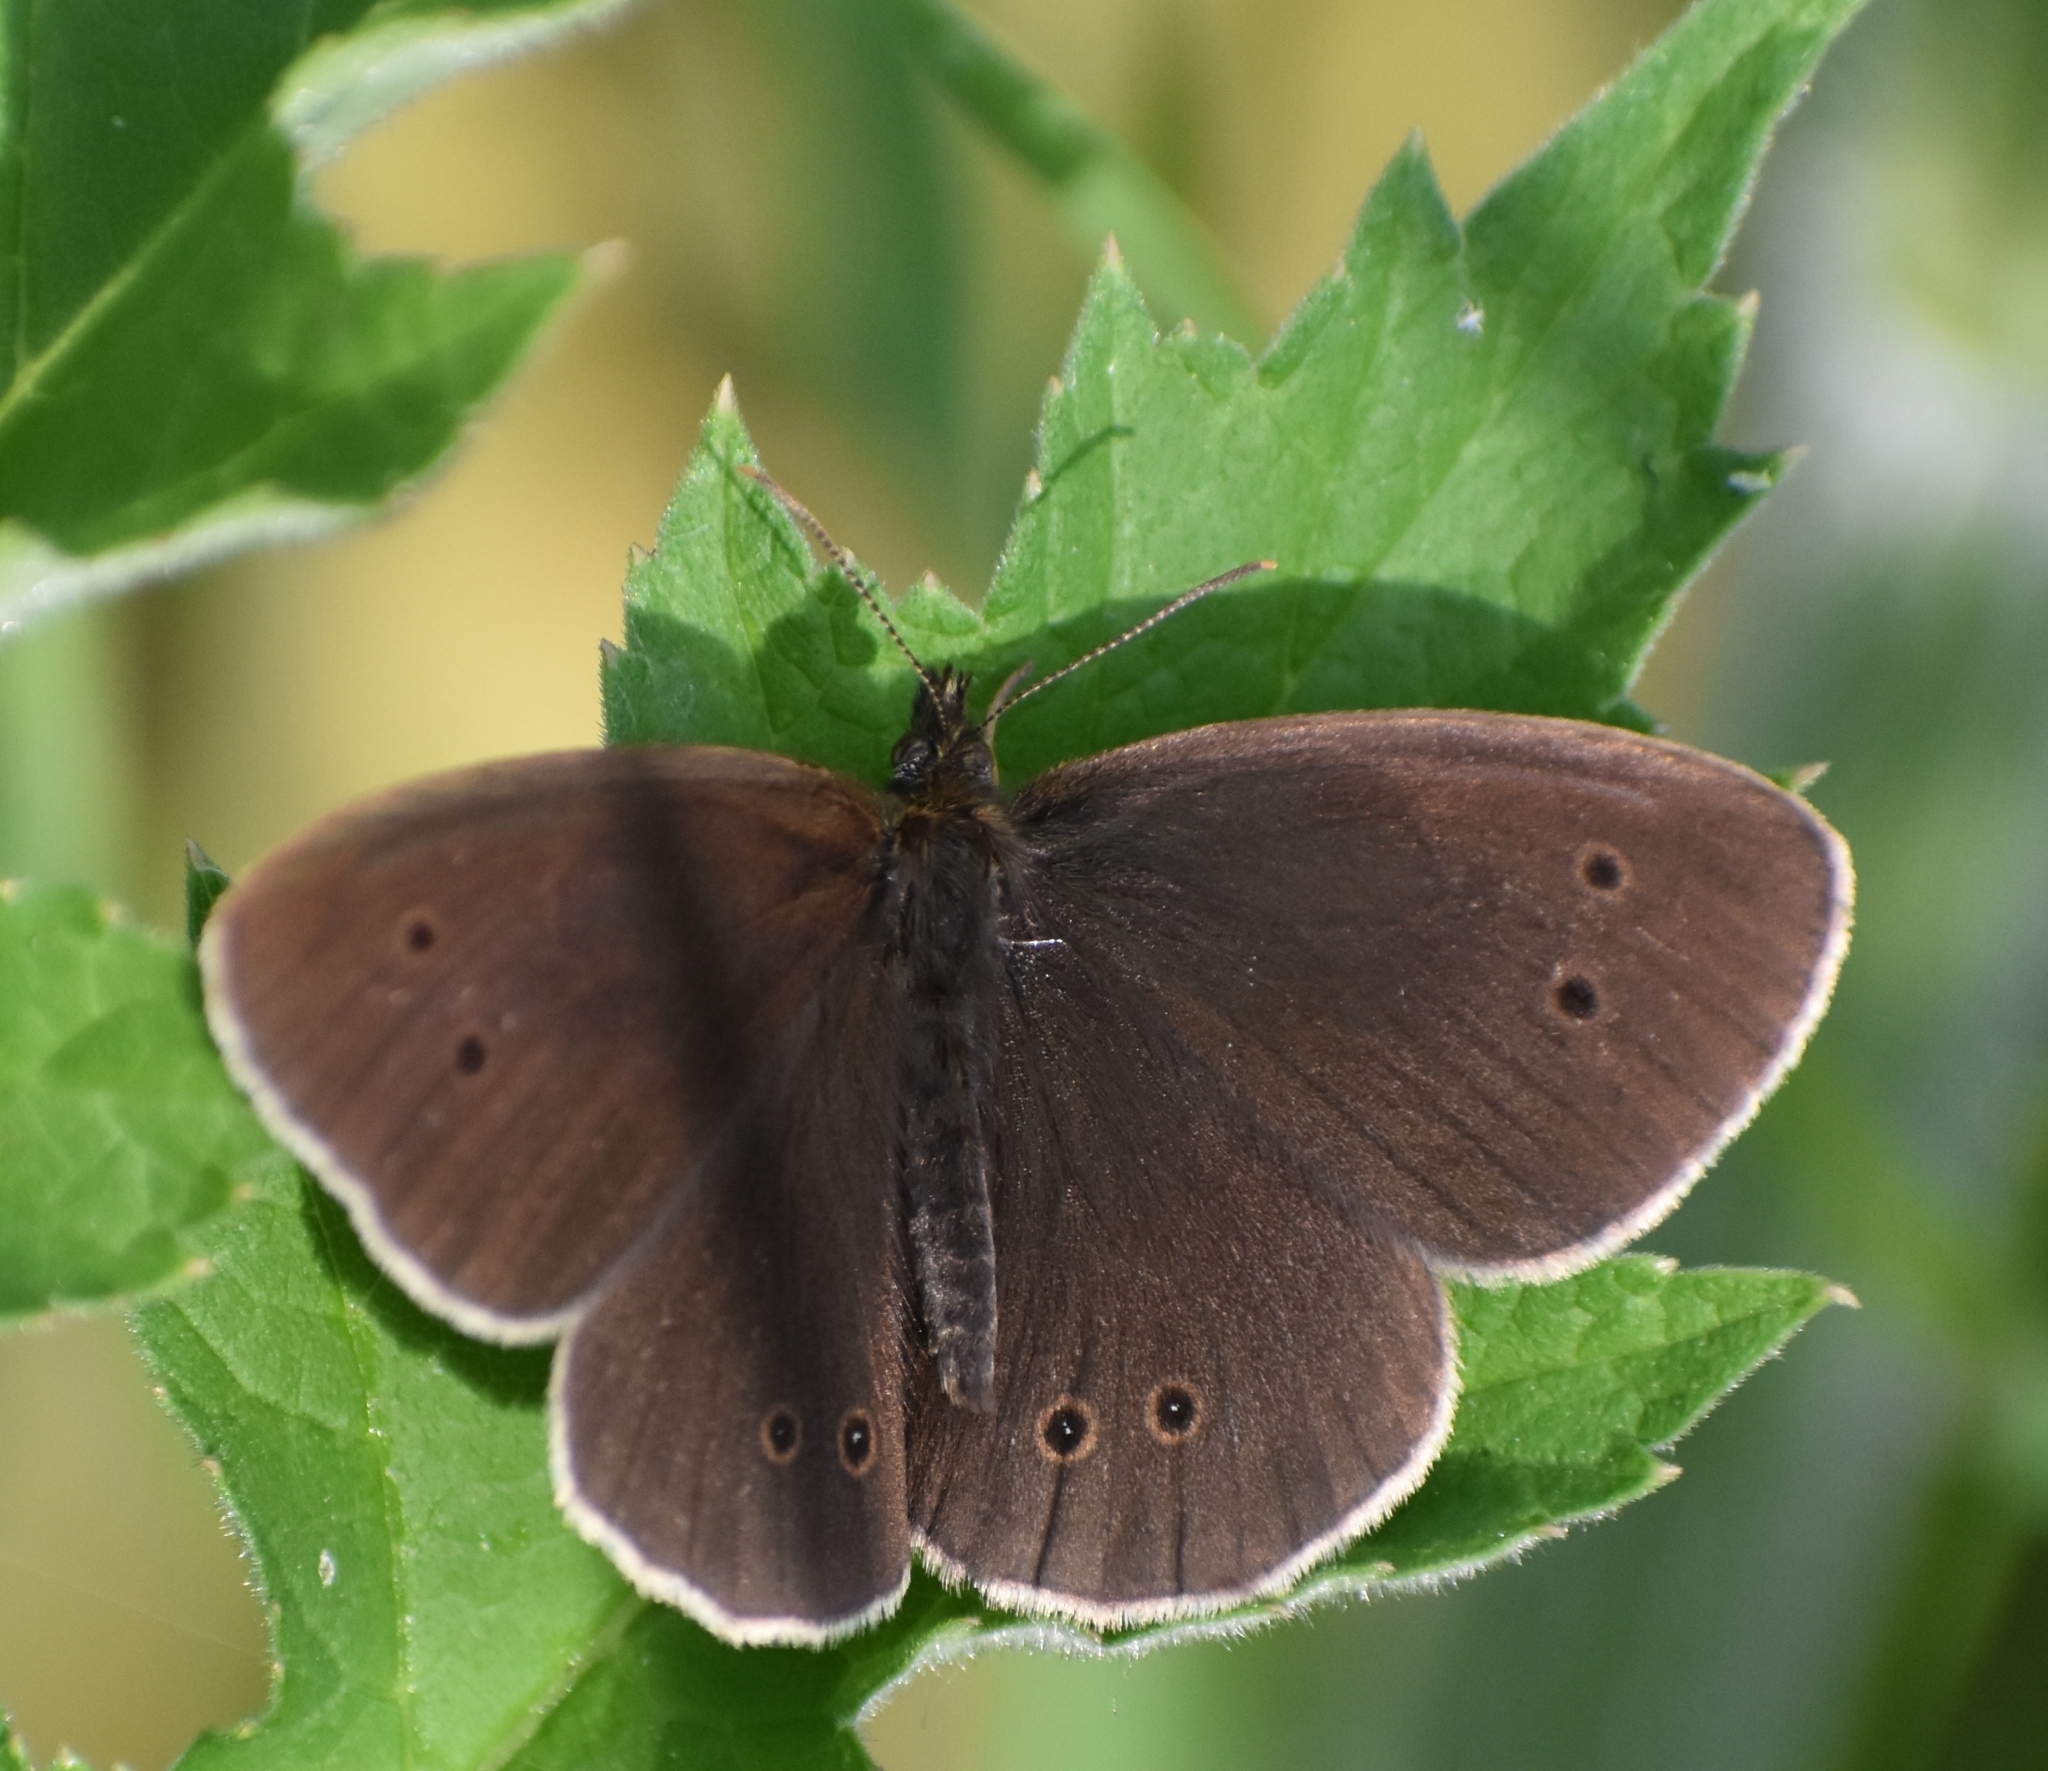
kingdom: Animalia
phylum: Arthropoda
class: Insecta
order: Lepidoptera
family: Nymphalidae
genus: Aphantopus
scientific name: Aphantopus hyperantus
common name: Ringlet
